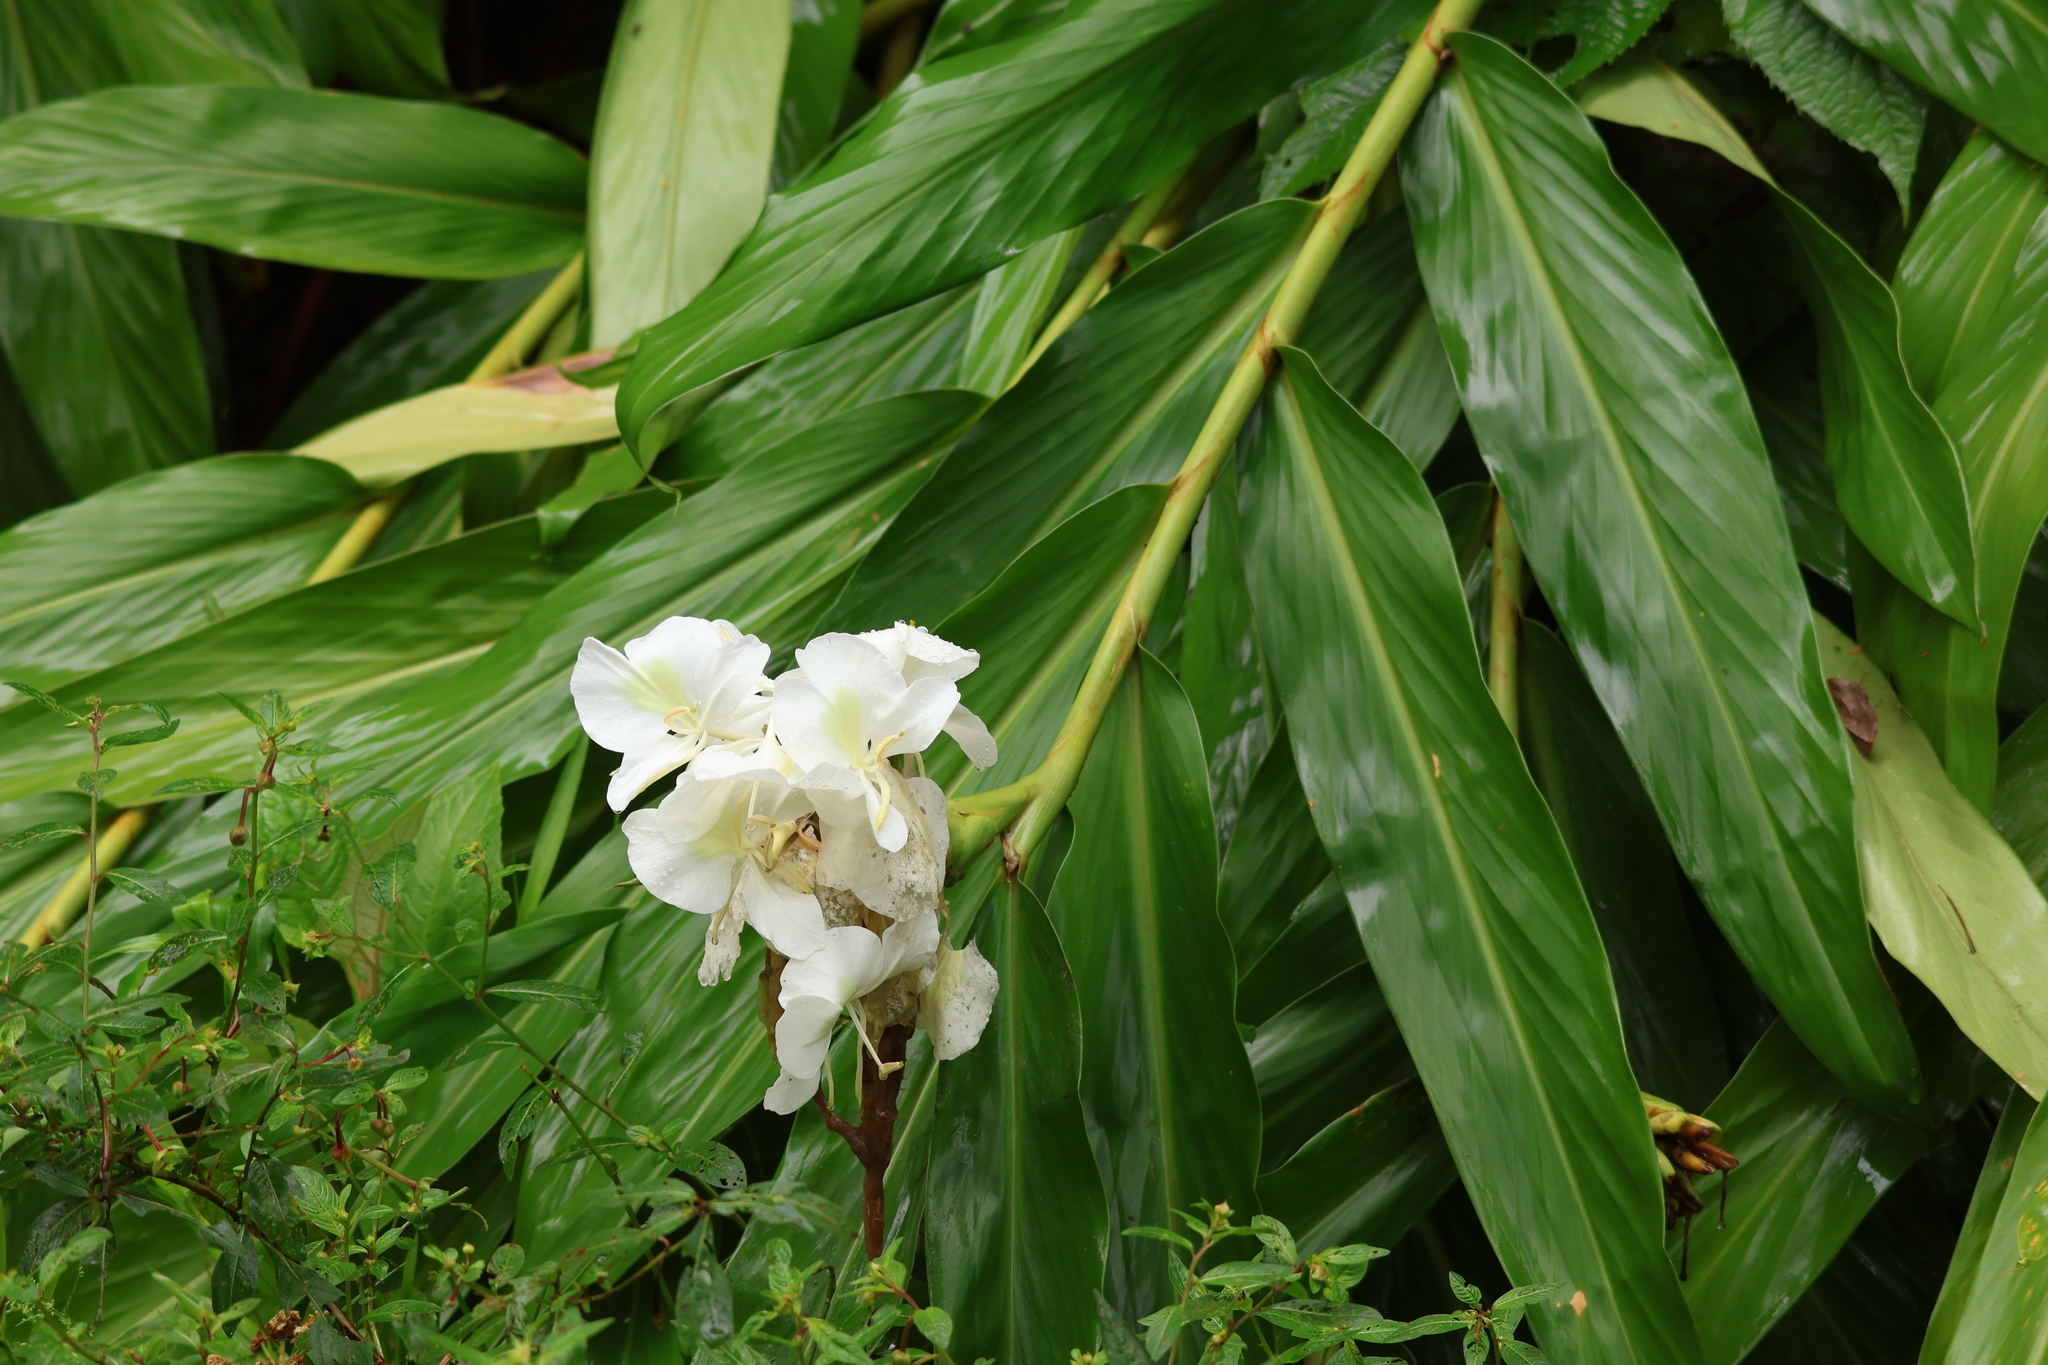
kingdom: Plantae
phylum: Tracheophyta
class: Liliopsida
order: Zingiberales
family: Zingiberaceae
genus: Hedychium
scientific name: Hedychium coronarium
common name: White garland-lily
